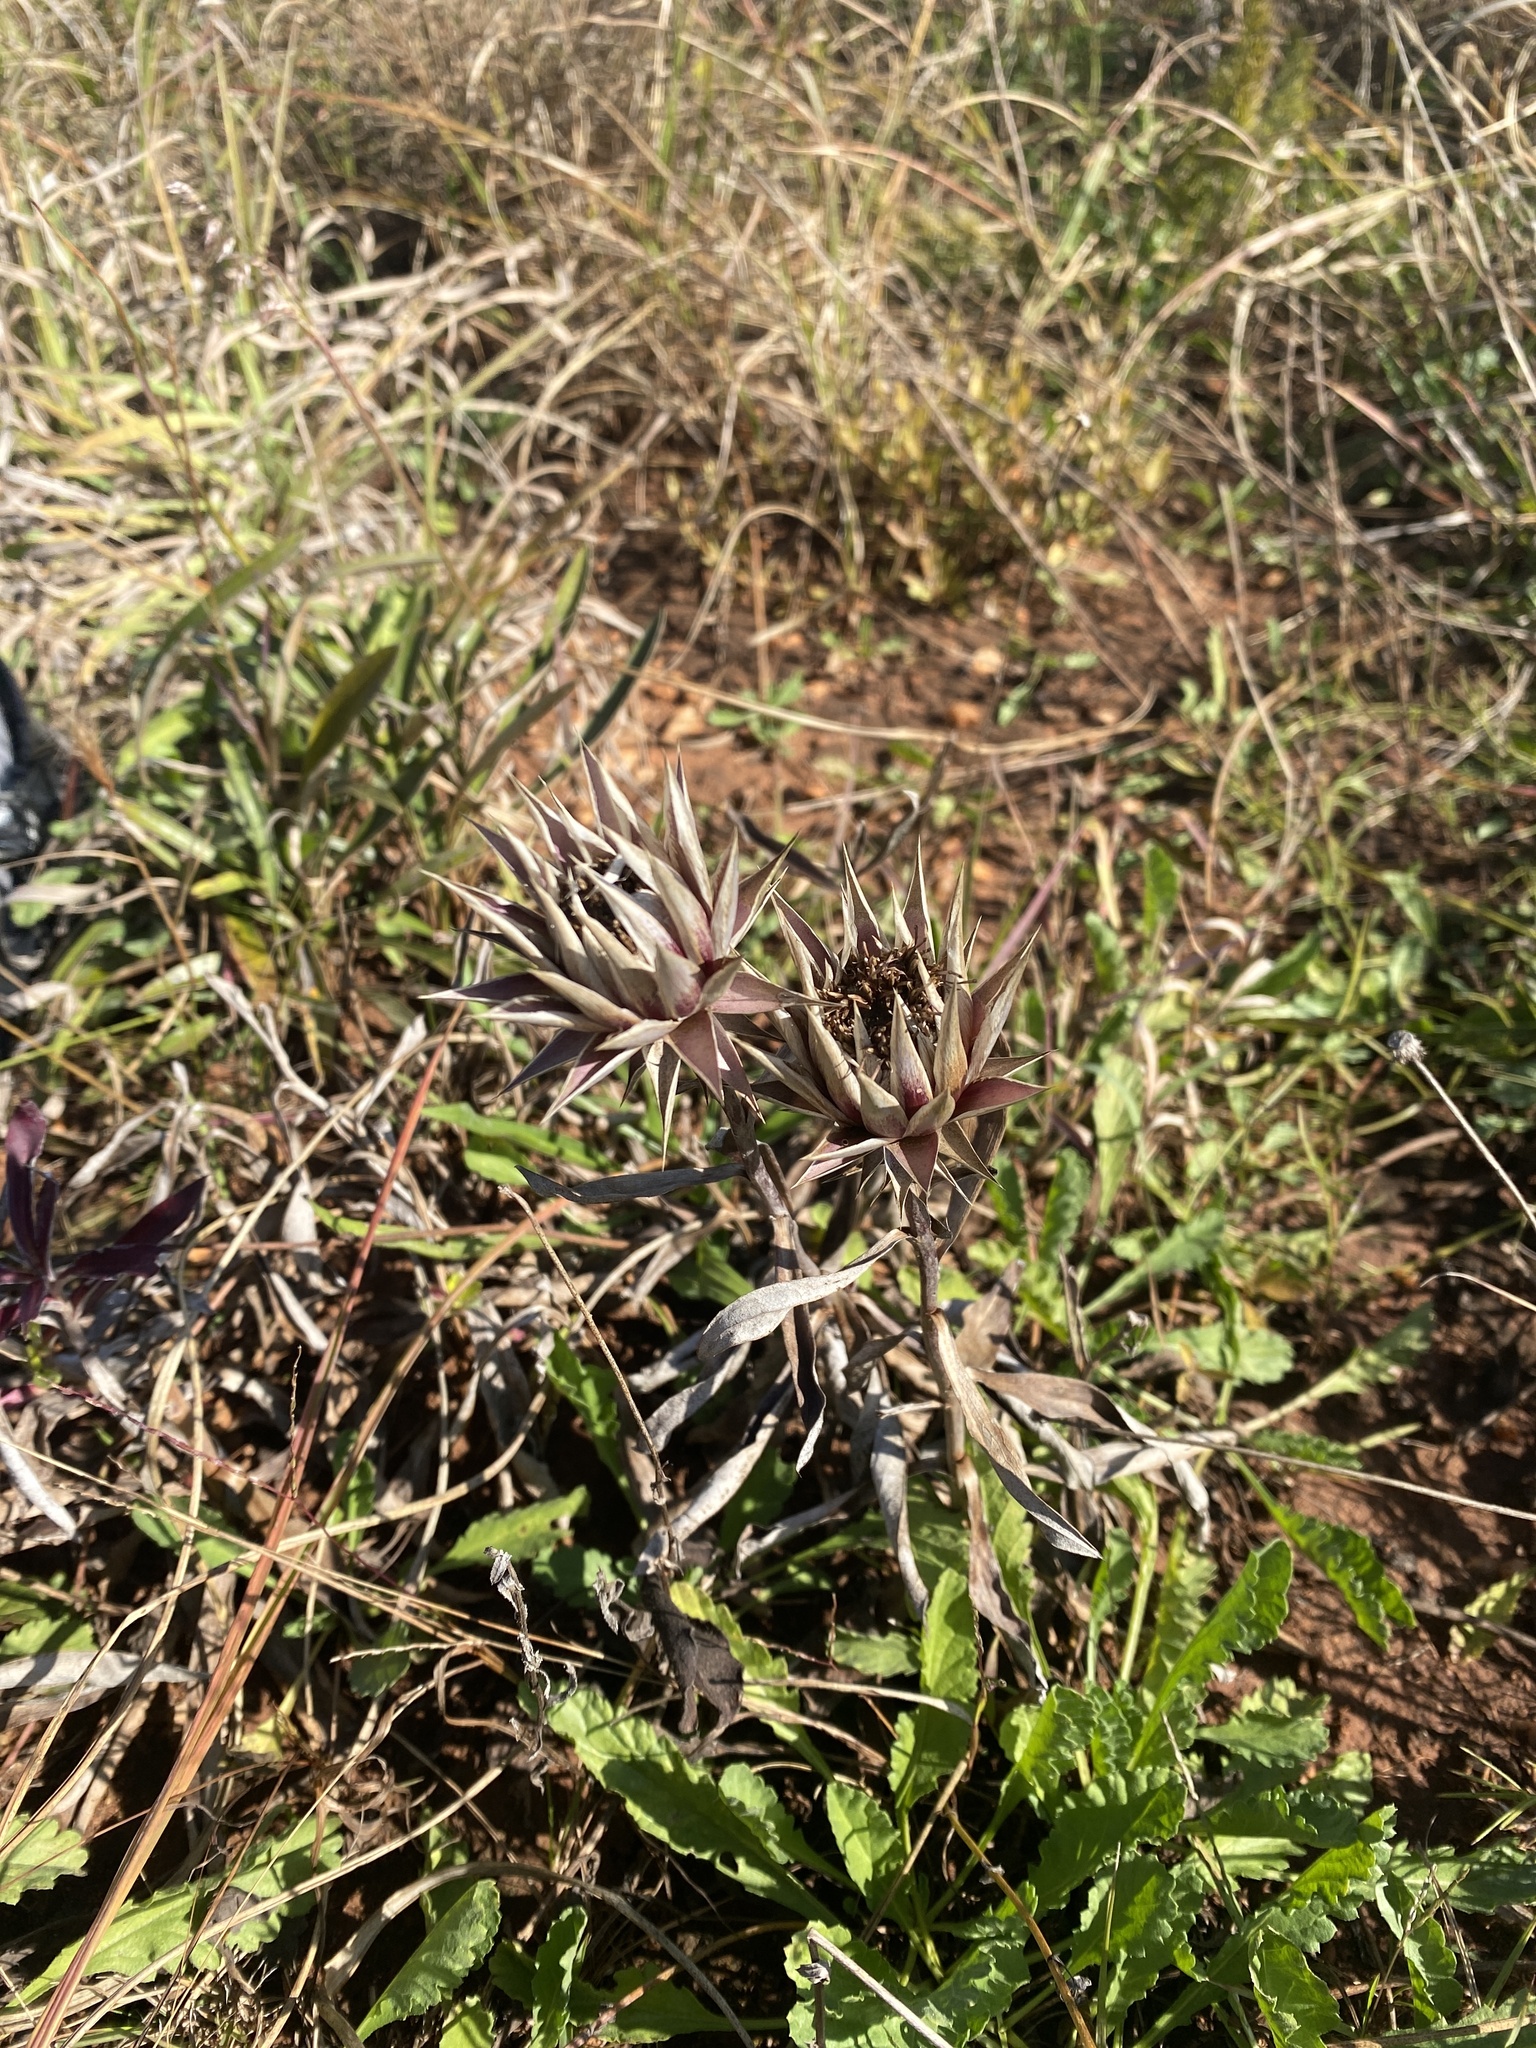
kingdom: Plantae
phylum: Tracheophyta
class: Magnoliopsida
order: Asterales
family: Asteraceae
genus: Macledium
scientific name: Macledium zeyheri
